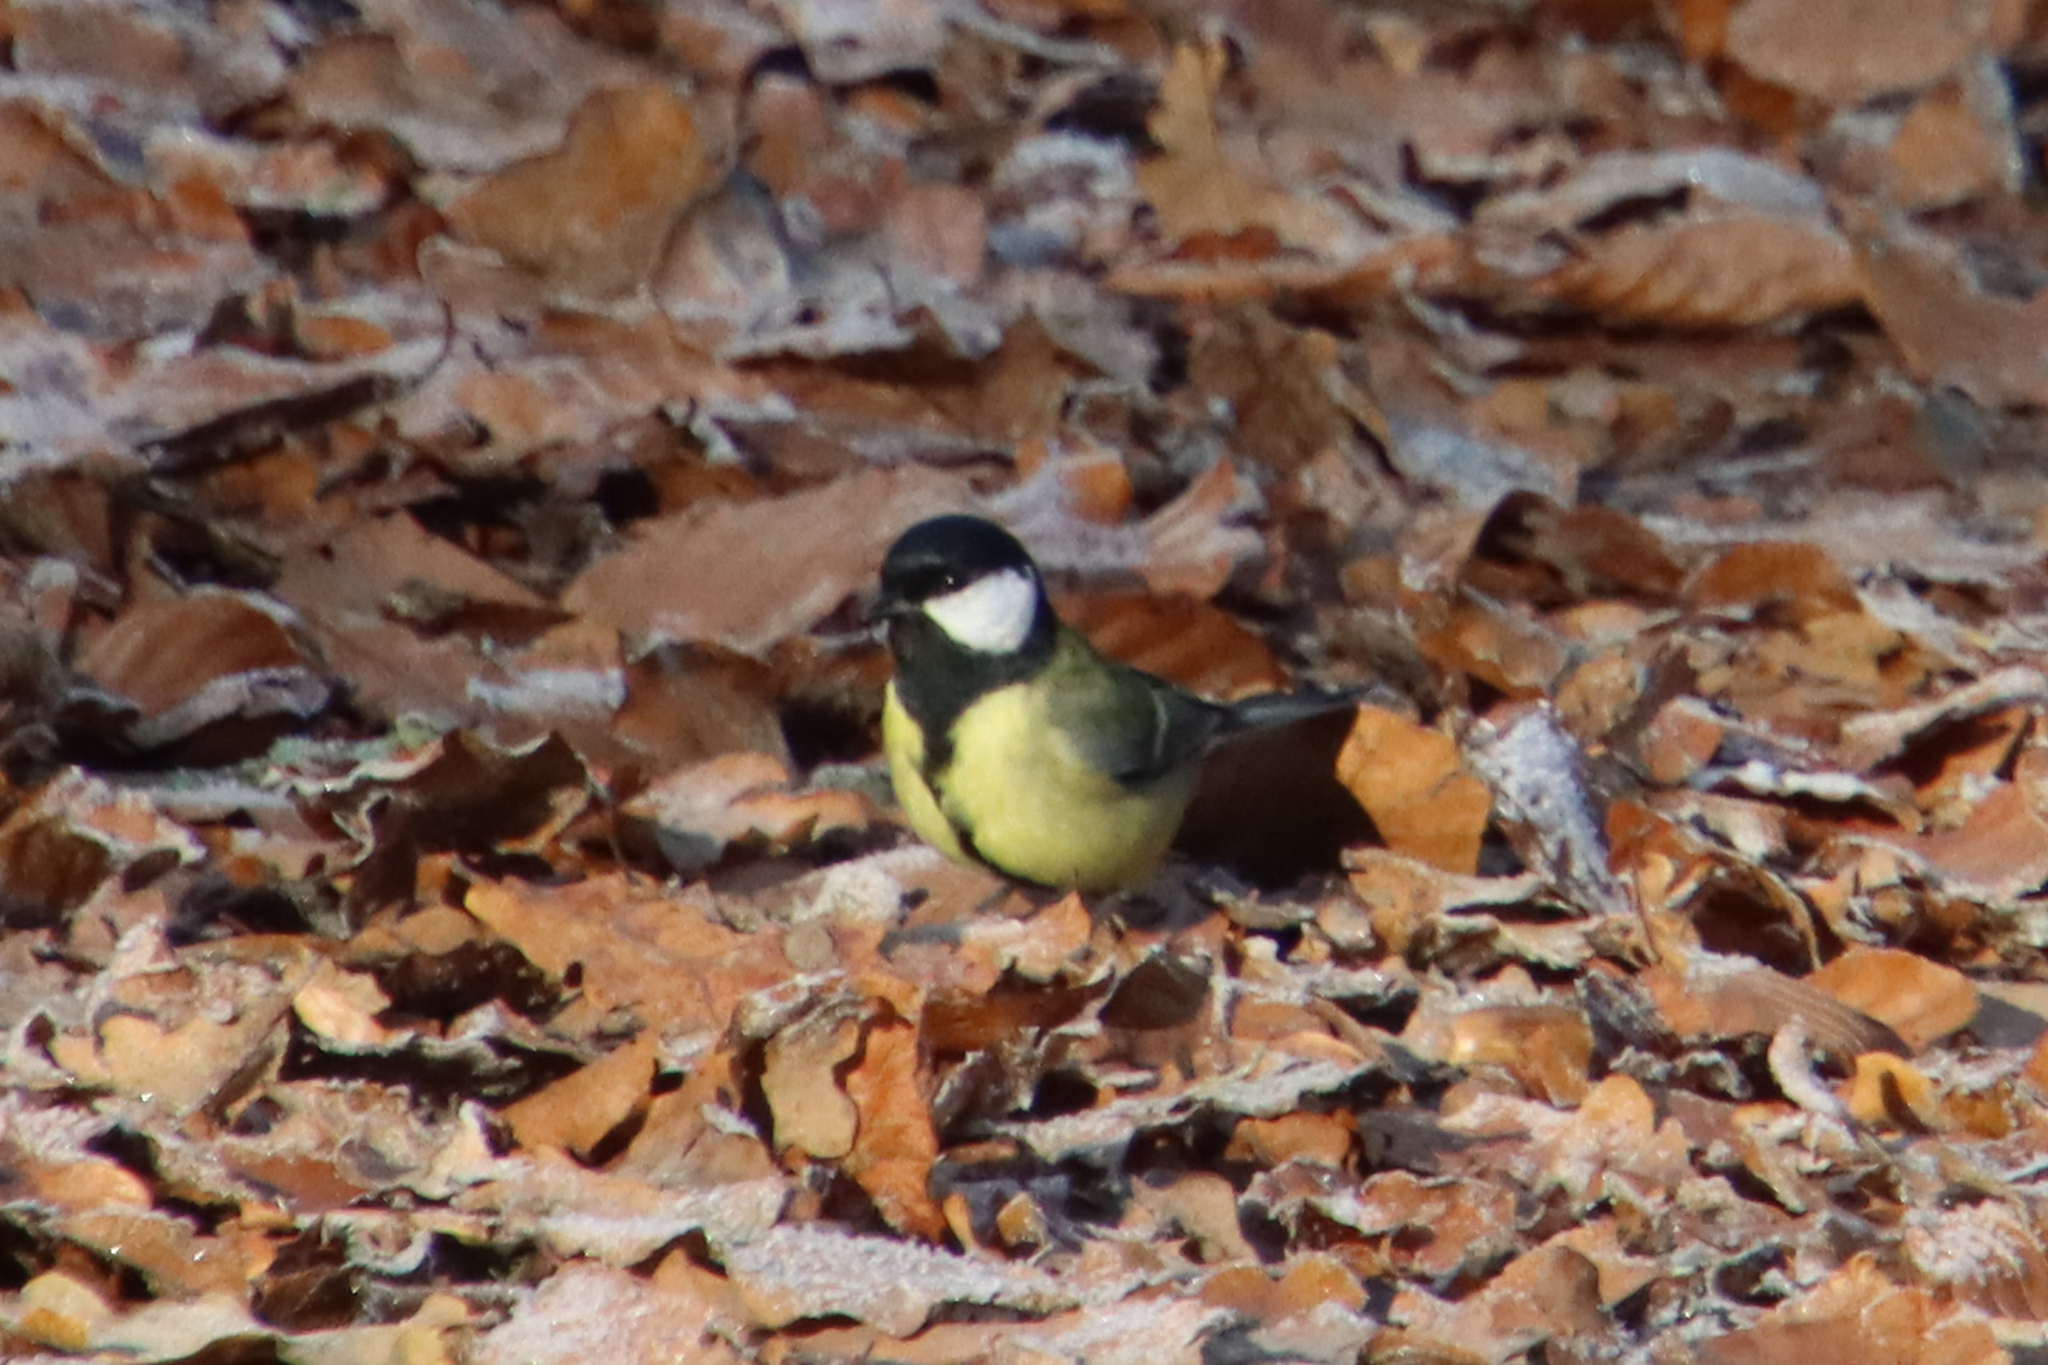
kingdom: Animalia
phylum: Chordata
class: Aves
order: Passeriformes
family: Paridae
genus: Parus
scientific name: Parus major
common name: Great tit
